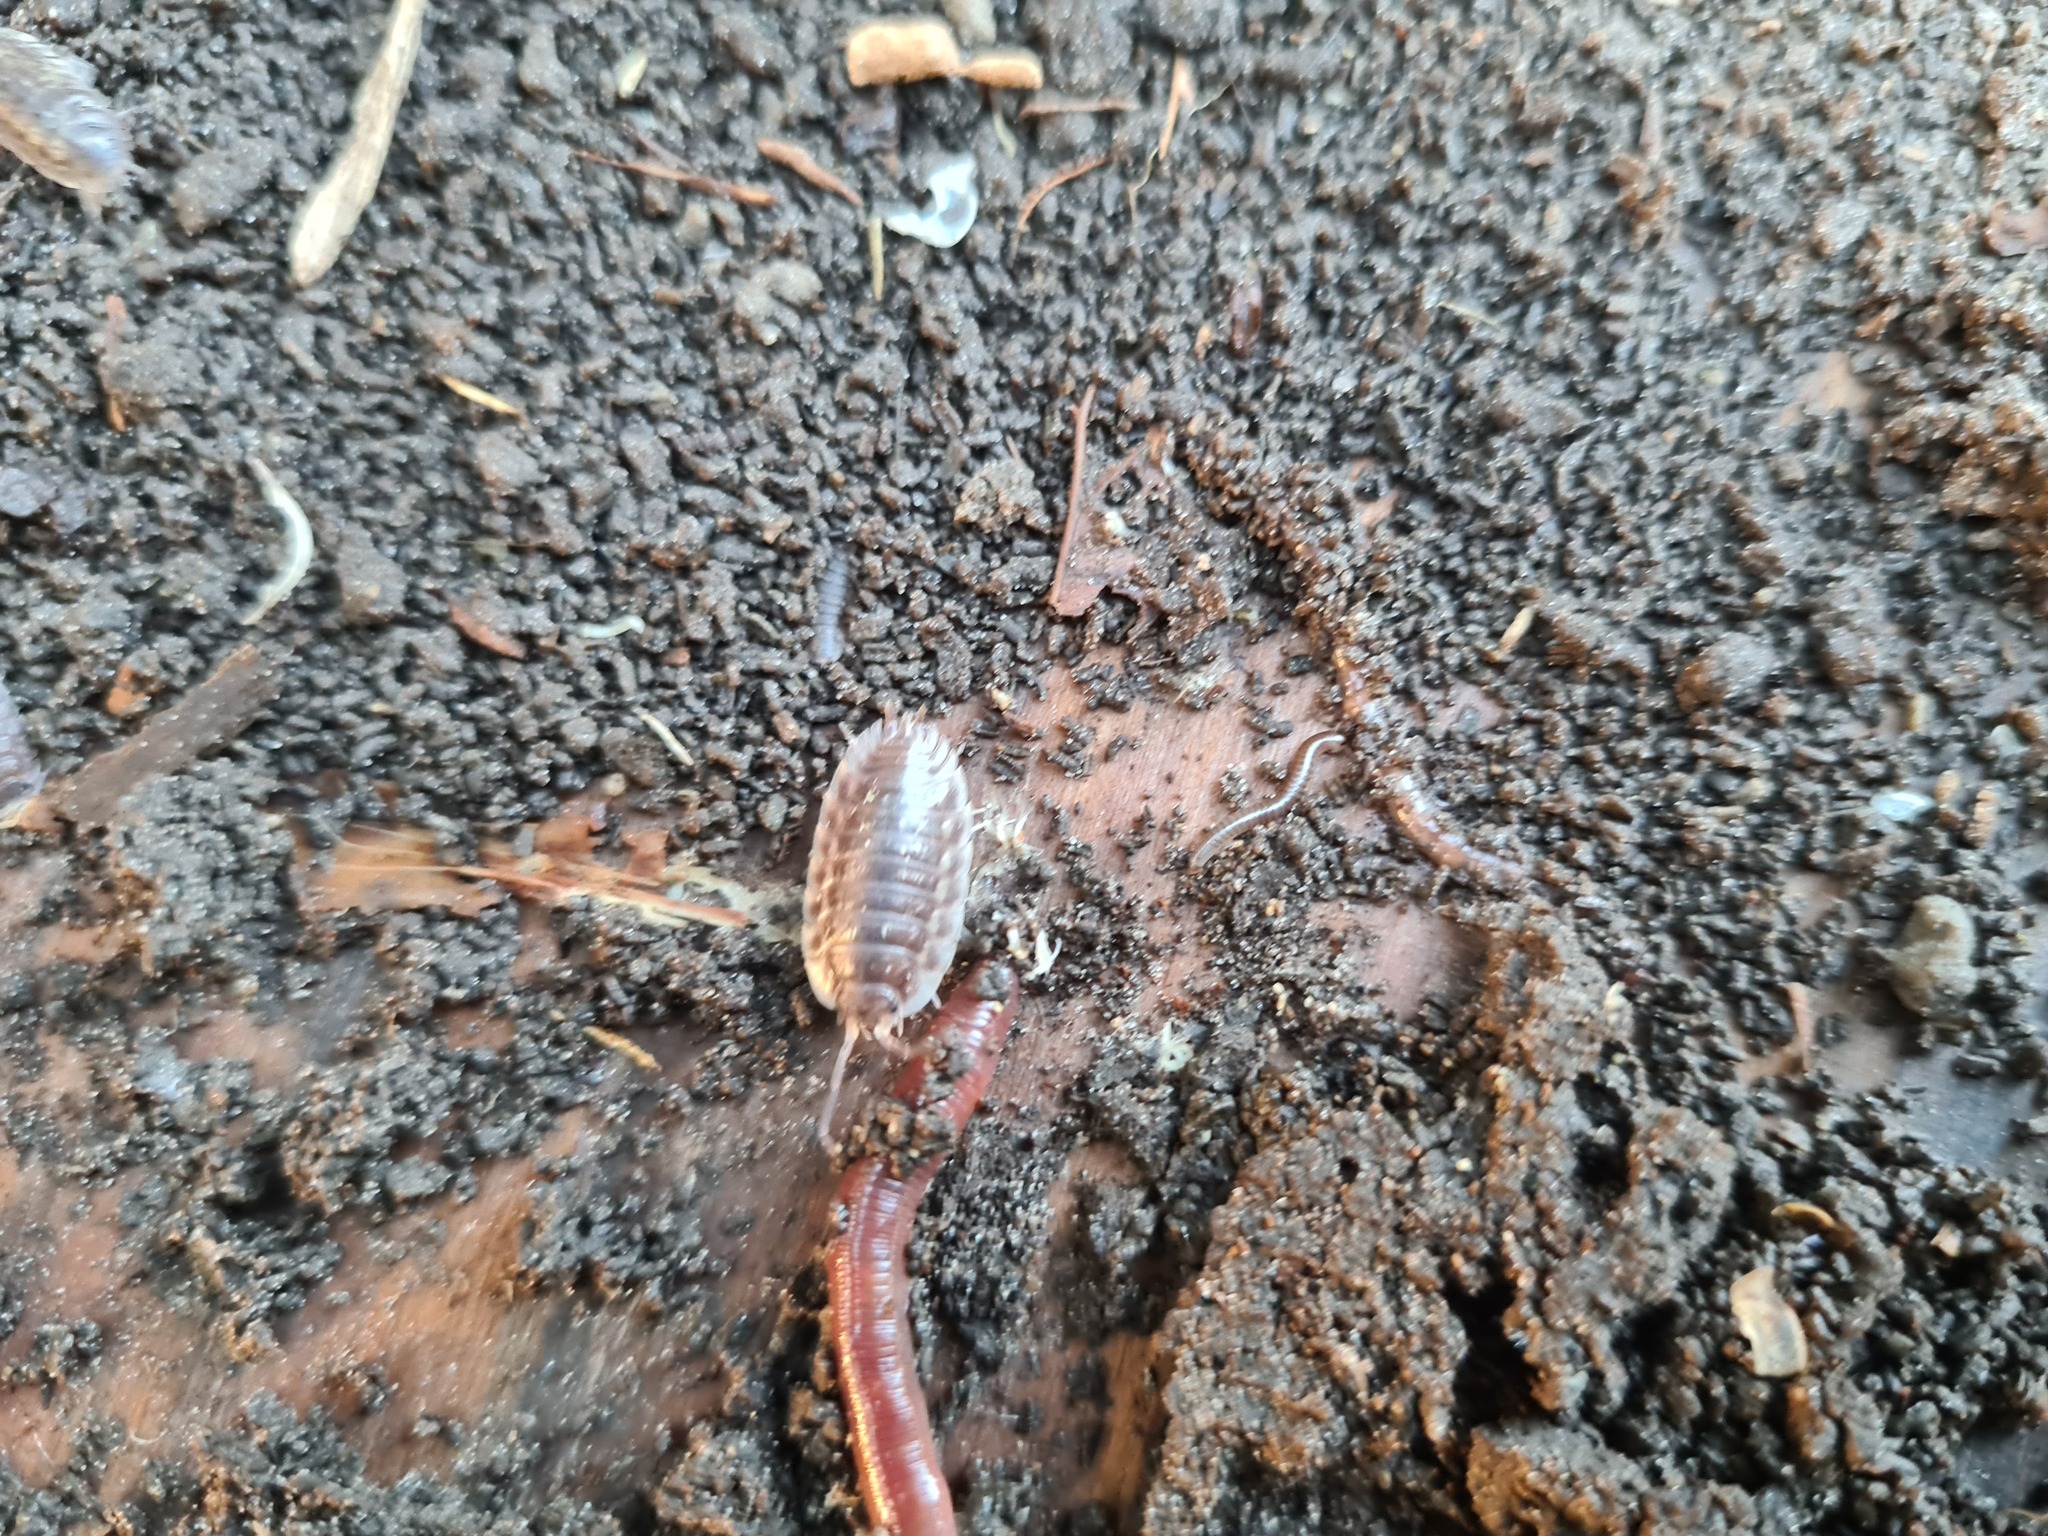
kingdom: Animalia
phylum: Arthropoda
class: Malacostraca
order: Isopoda
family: Oniscidae
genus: Oniscus
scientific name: Oniscus asellus
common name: Common shiny woodlouse
